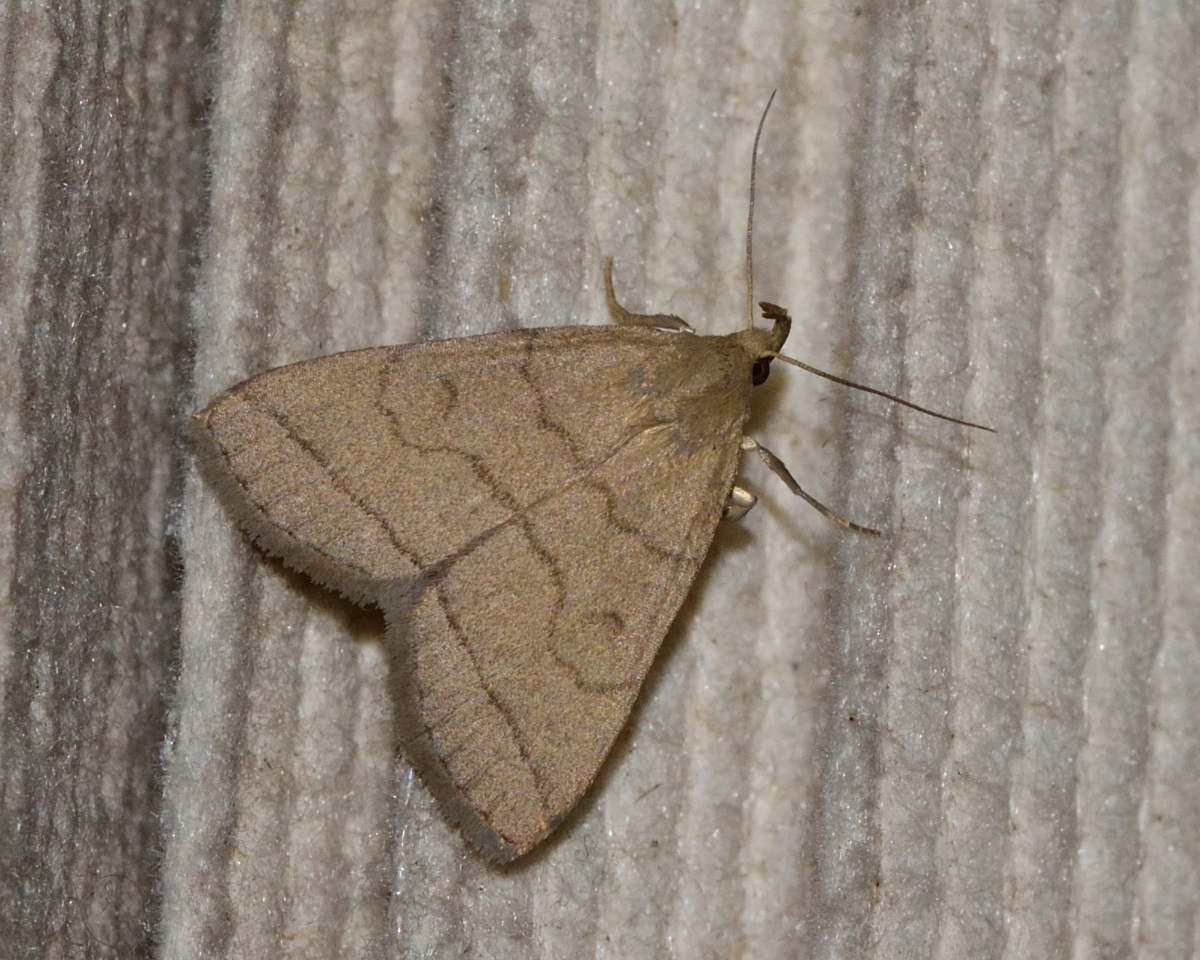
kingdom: Animalia
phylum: Arthropoda
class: Insecta
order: Lepidoptera
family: Erebidae
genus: Herminia
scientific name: Herminia tarsipennalis
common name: Fan-foot
